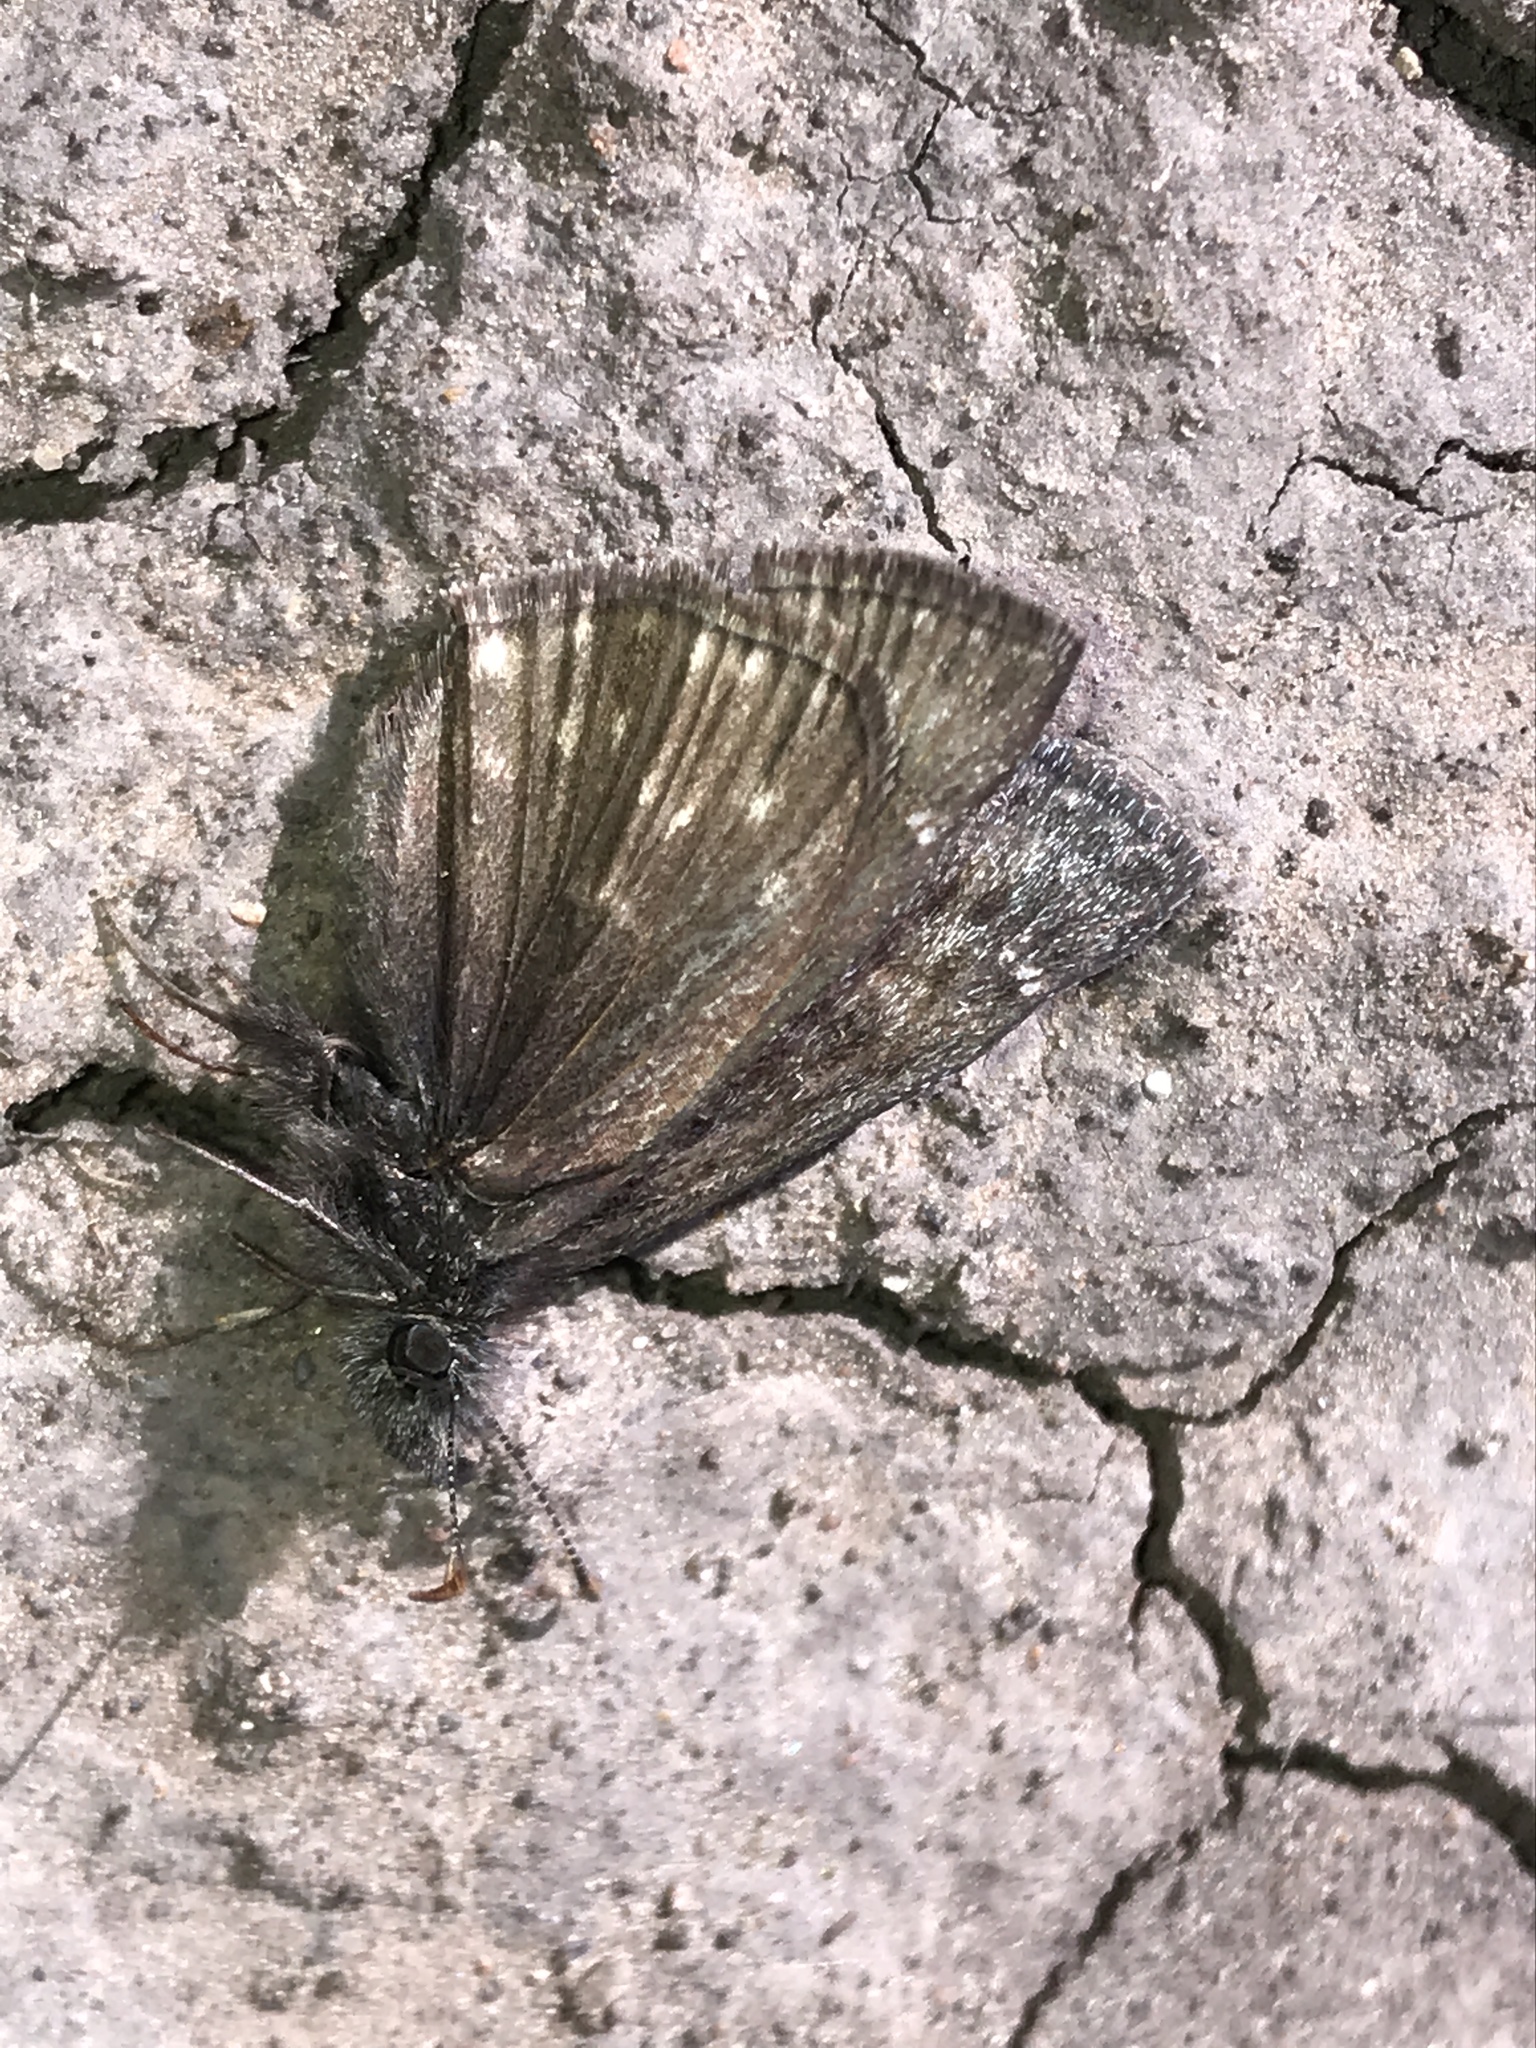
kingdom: Animalia
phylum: Arthropoda
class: Insecta
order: Lepidoptera
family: Hesperiidae
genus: Erynnis
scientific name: Erynnis persius
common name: Persius duskywing
